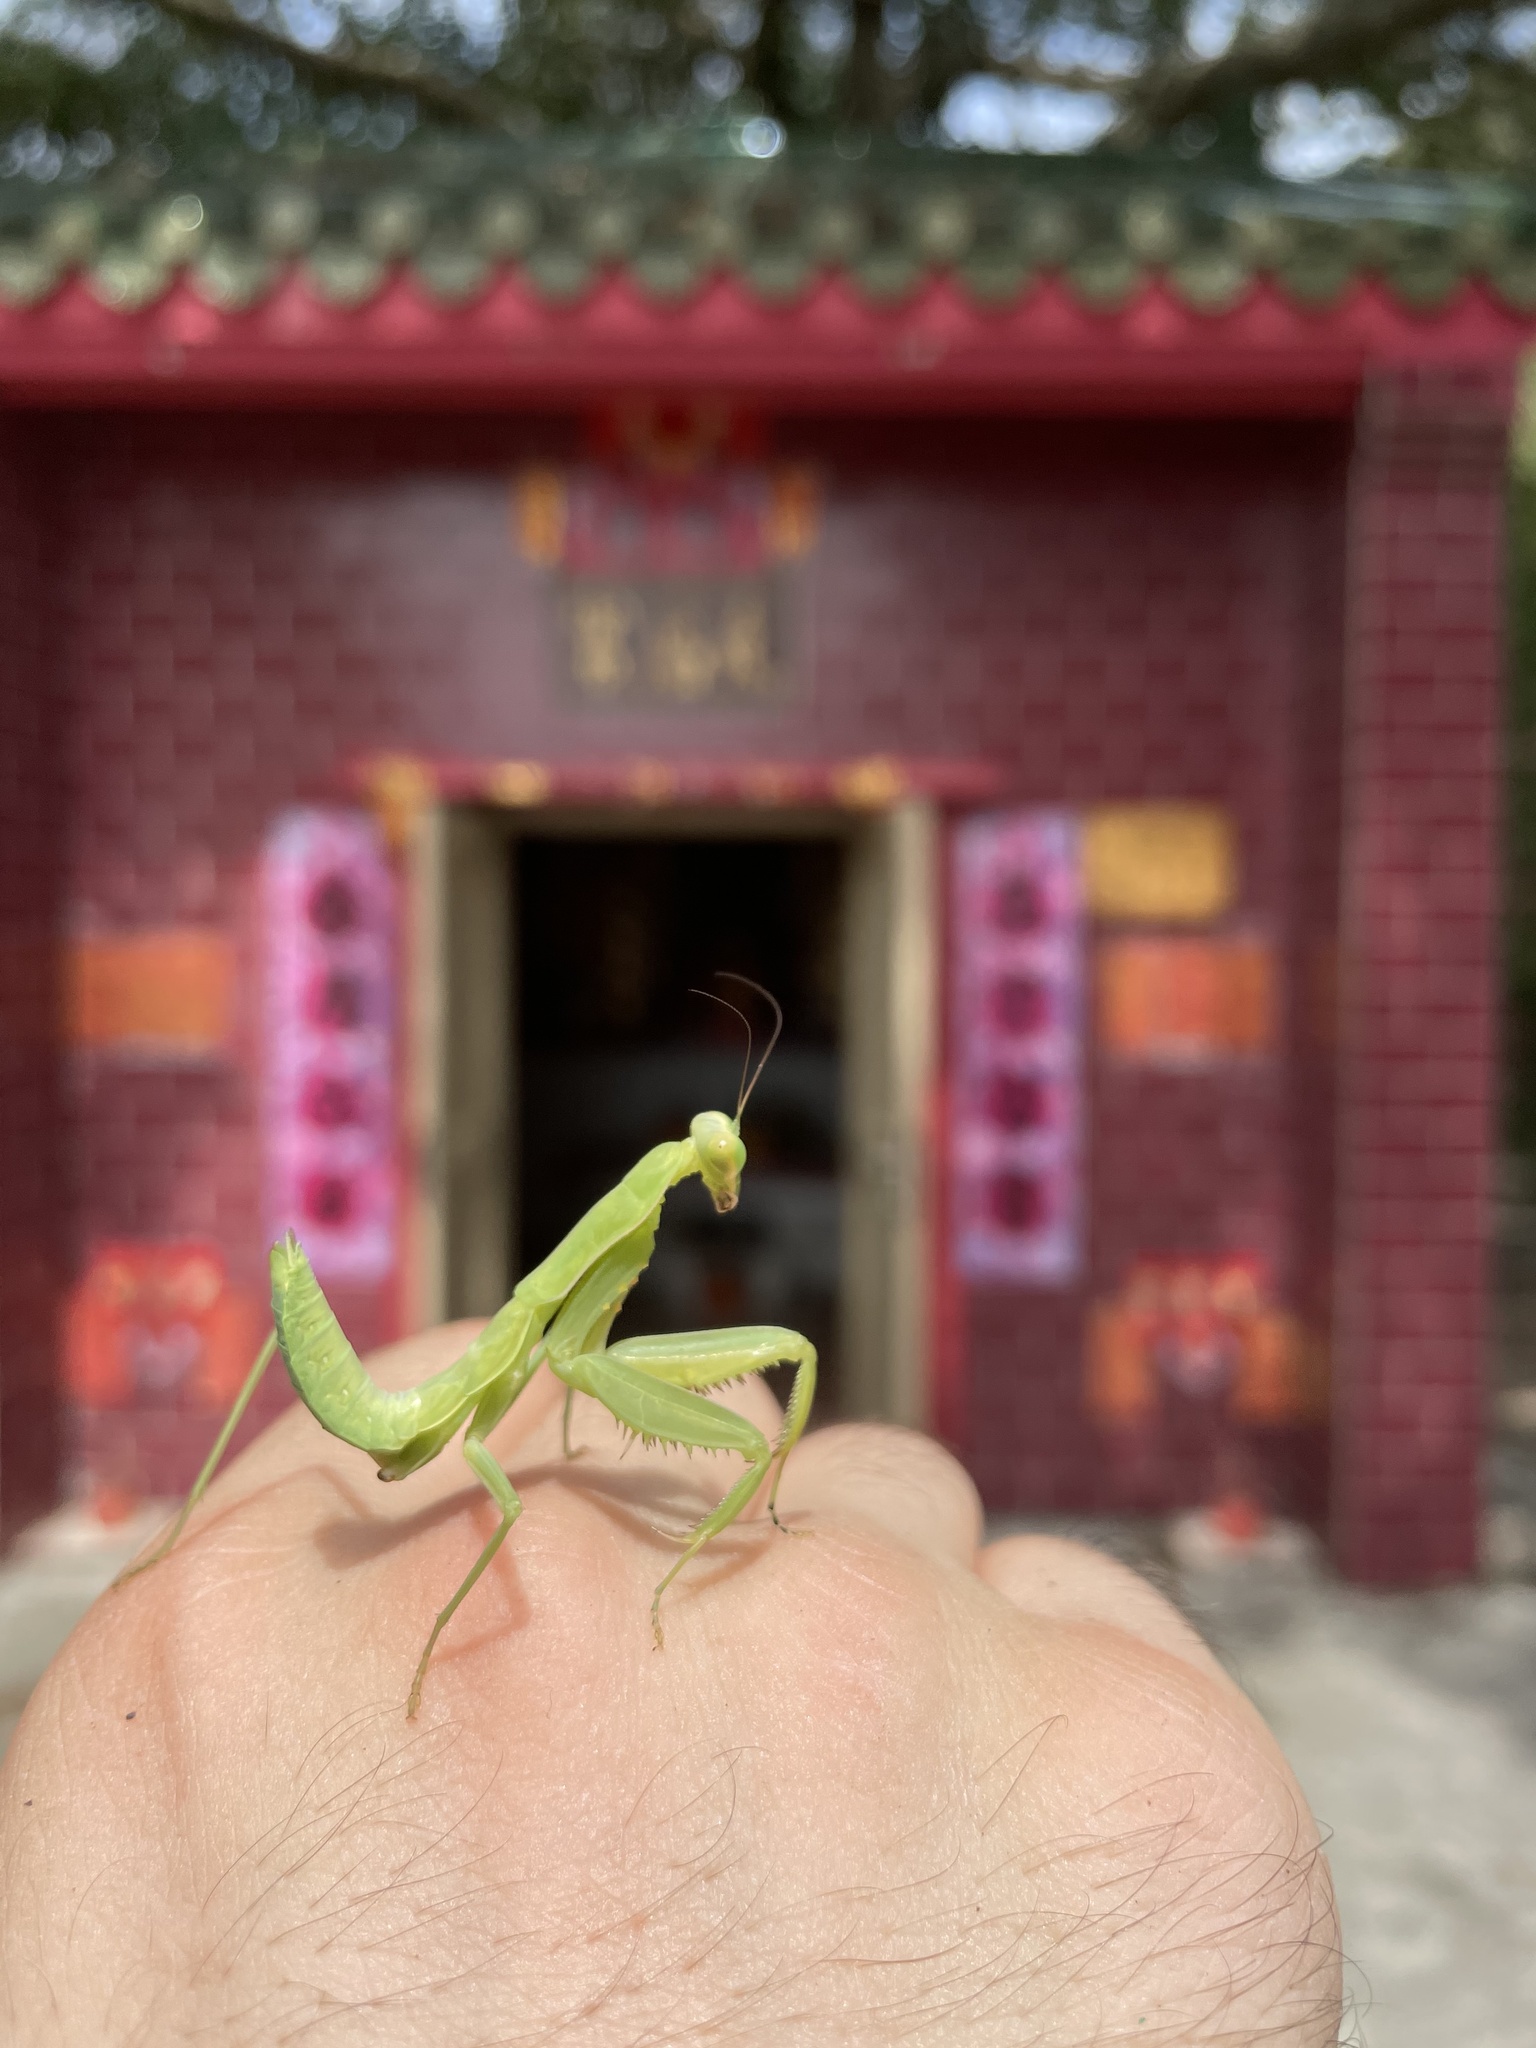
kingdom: Animalia
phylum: Arthropoda
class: Insecta
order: Mantodea
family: Mantidae
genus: Hierodula
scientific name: Hierodula patellifera
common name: Asian mantis
